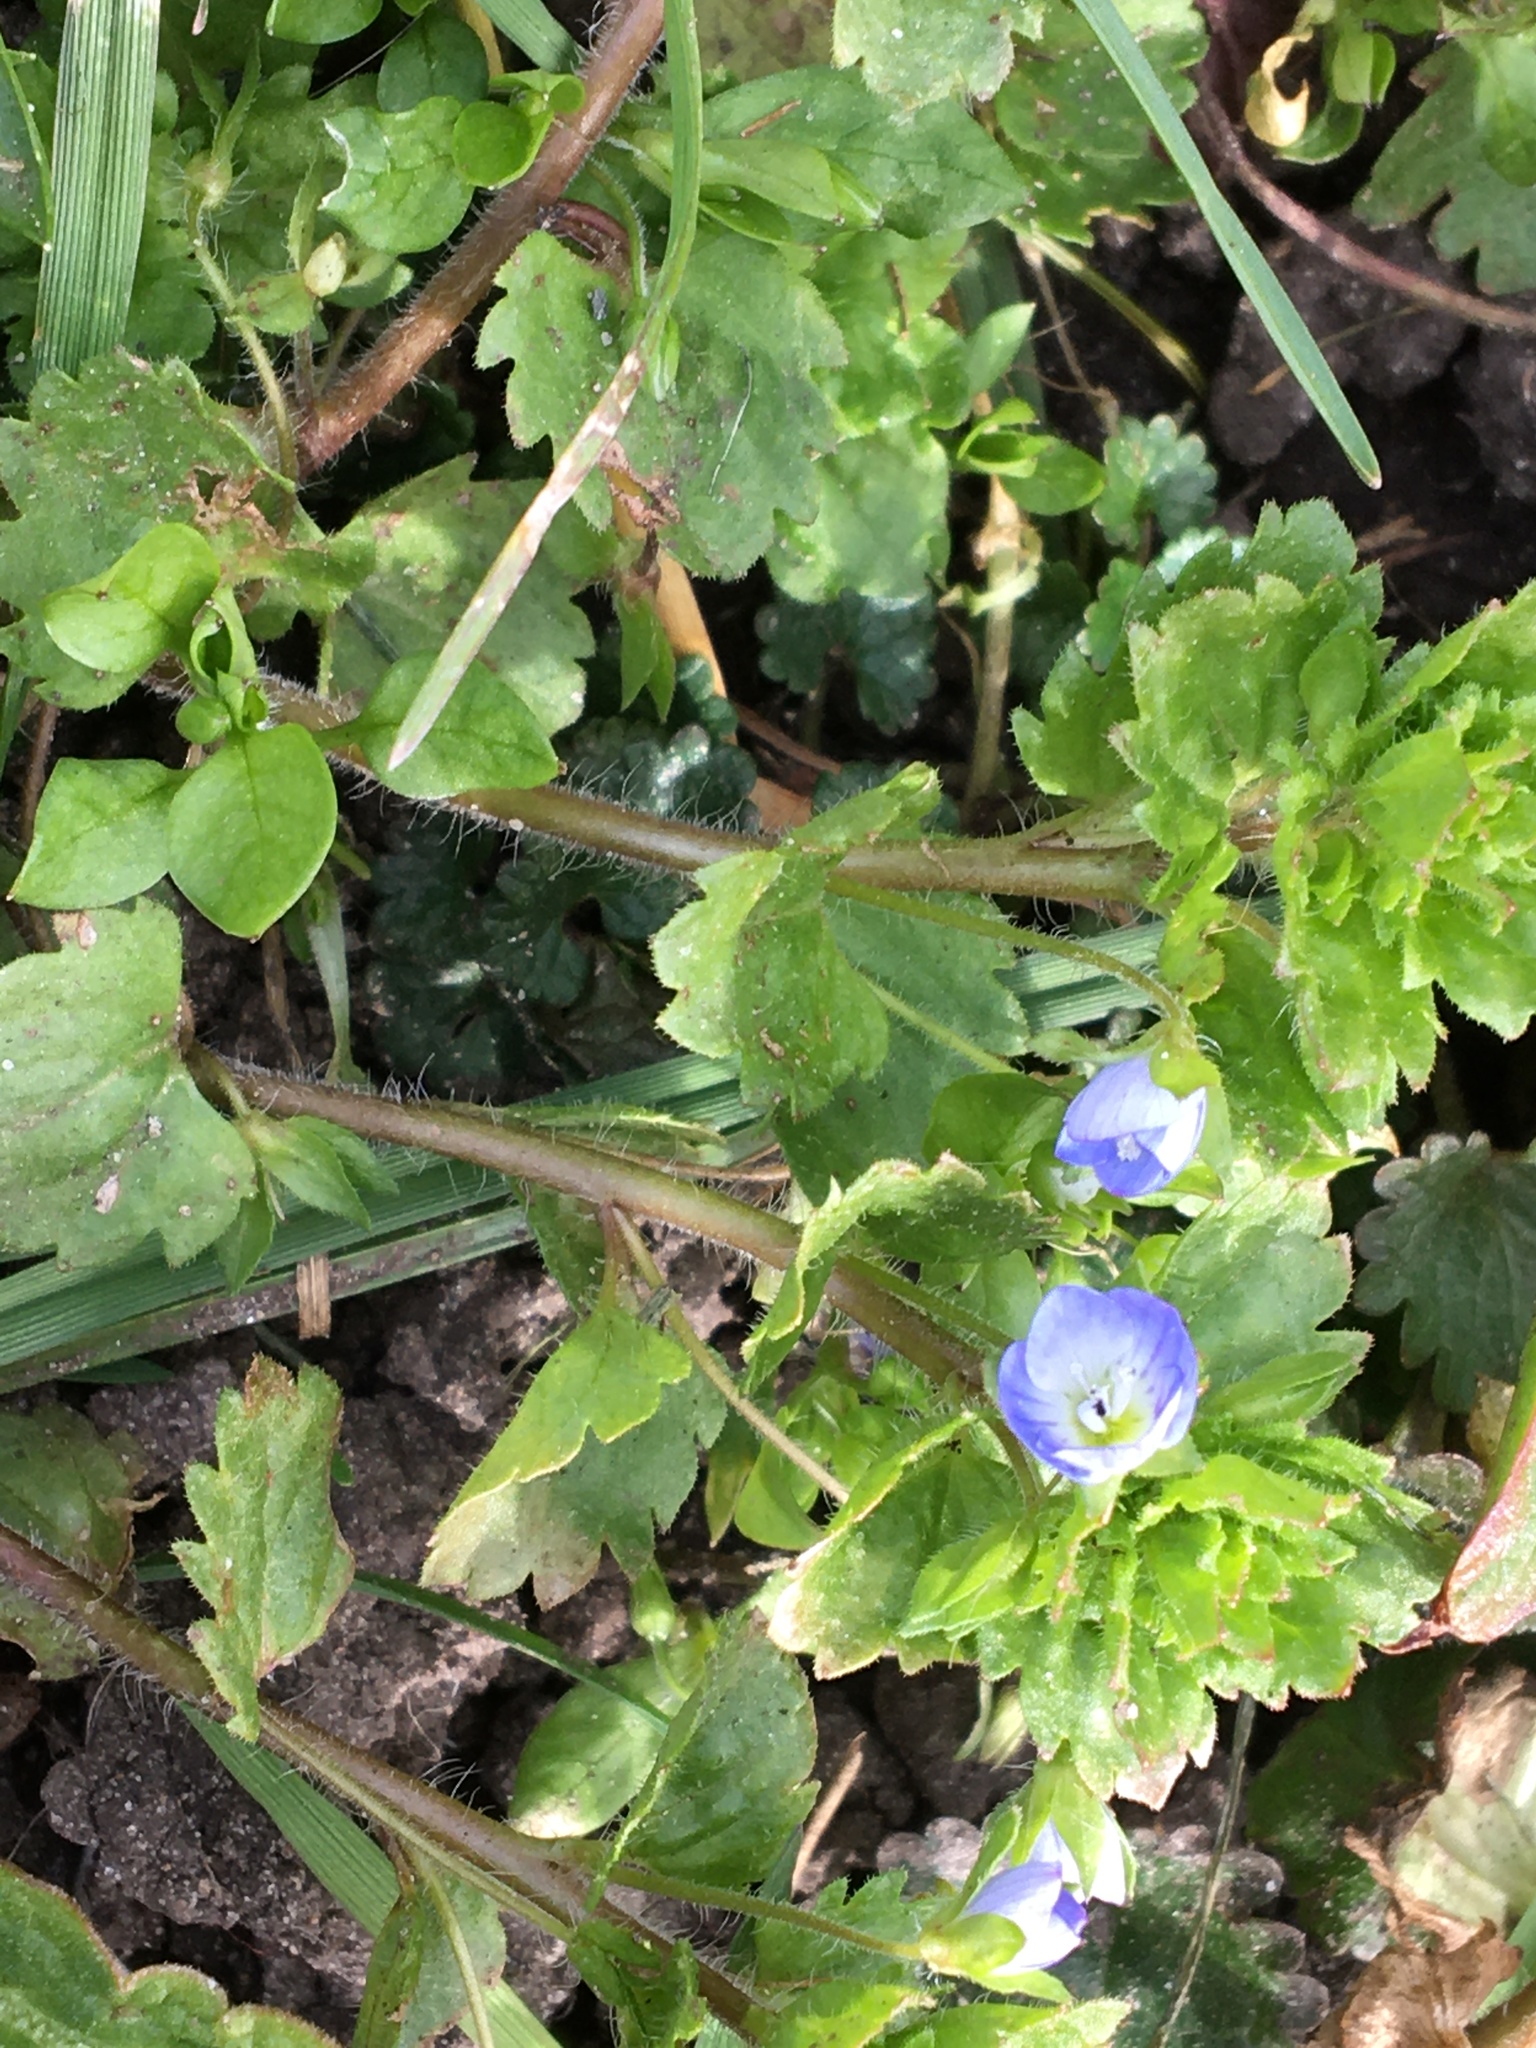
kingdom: Plantae
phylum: Tracheophyta
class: Magnoliopsida
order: Lamiales
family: Plantaginaceae
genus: Veronica
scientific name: Veronica persica
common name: Common field-speedwell
